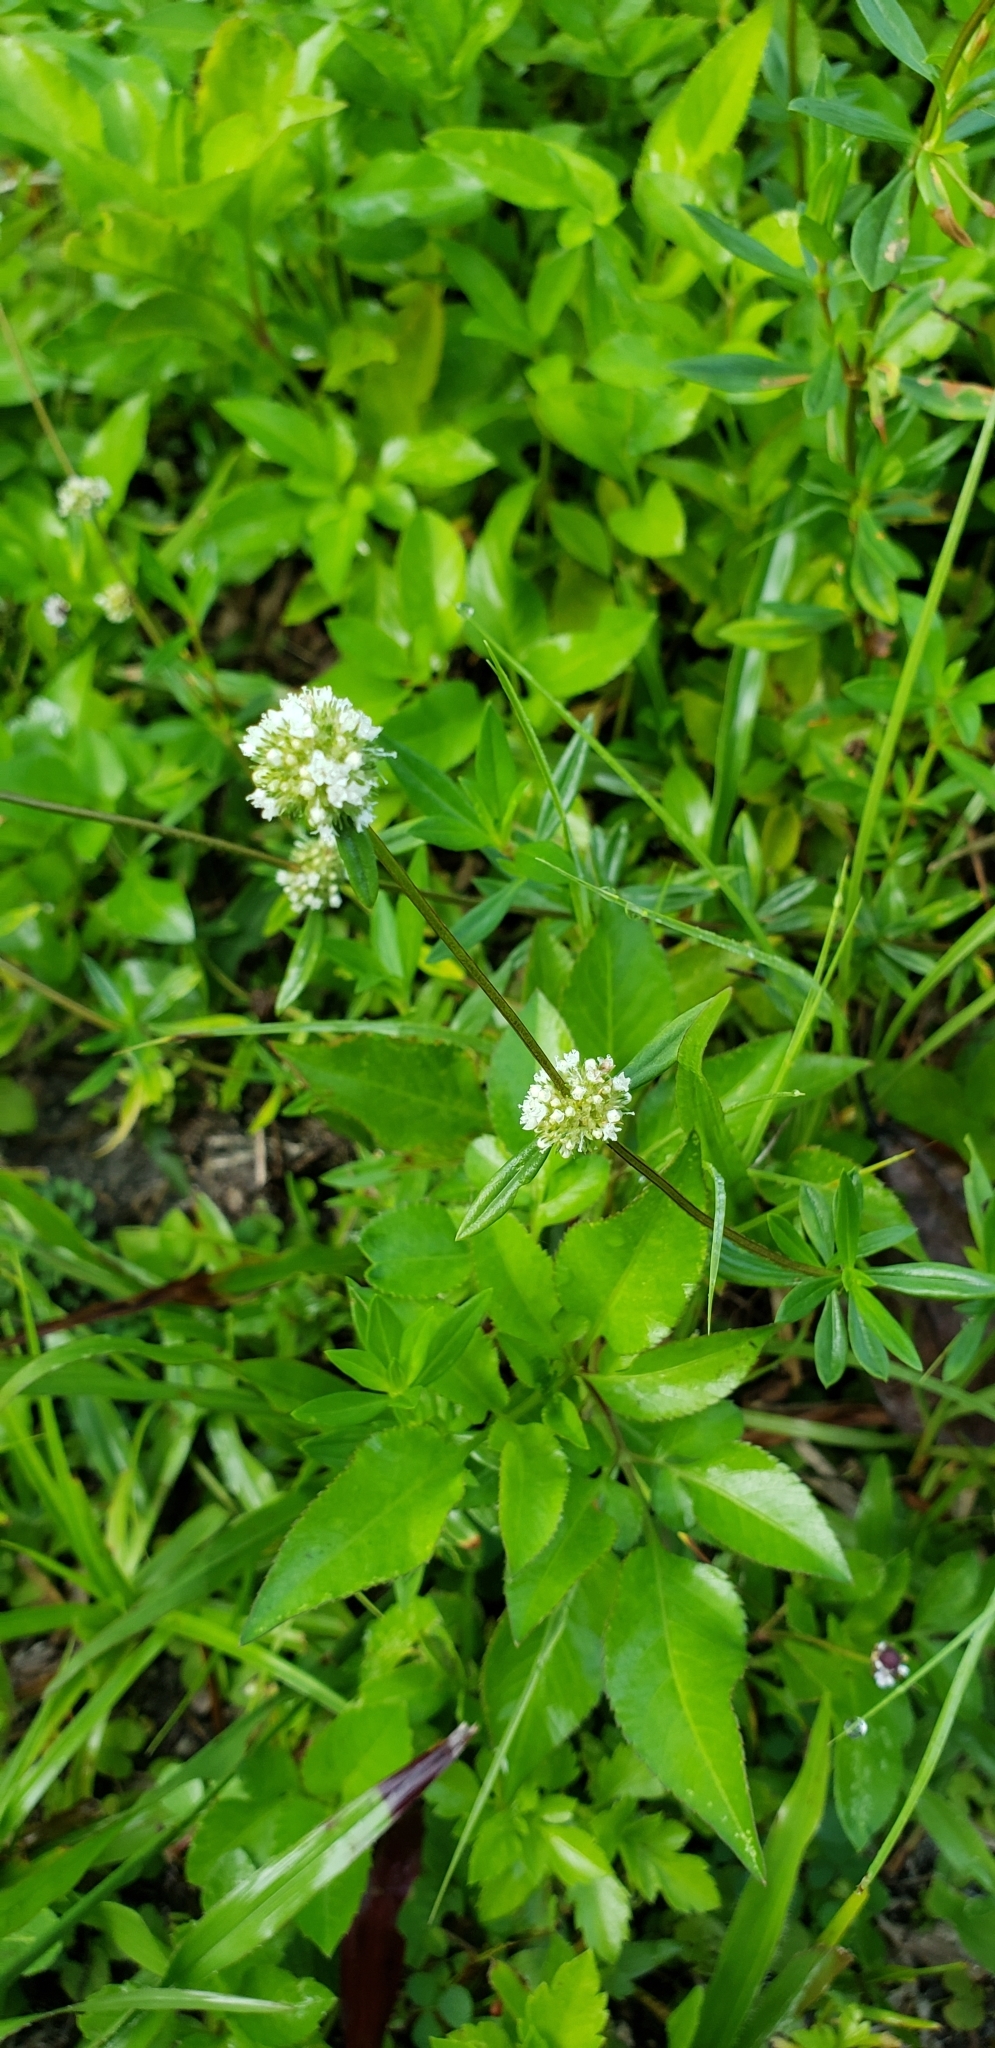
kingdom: Plantae
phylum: Tracheophyta
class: Magnoliopsida
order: Gentianales
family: Rubiaceae
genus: Spermacoce
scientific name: Spermacoce verticillata
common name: Shrubby false buttonweed
